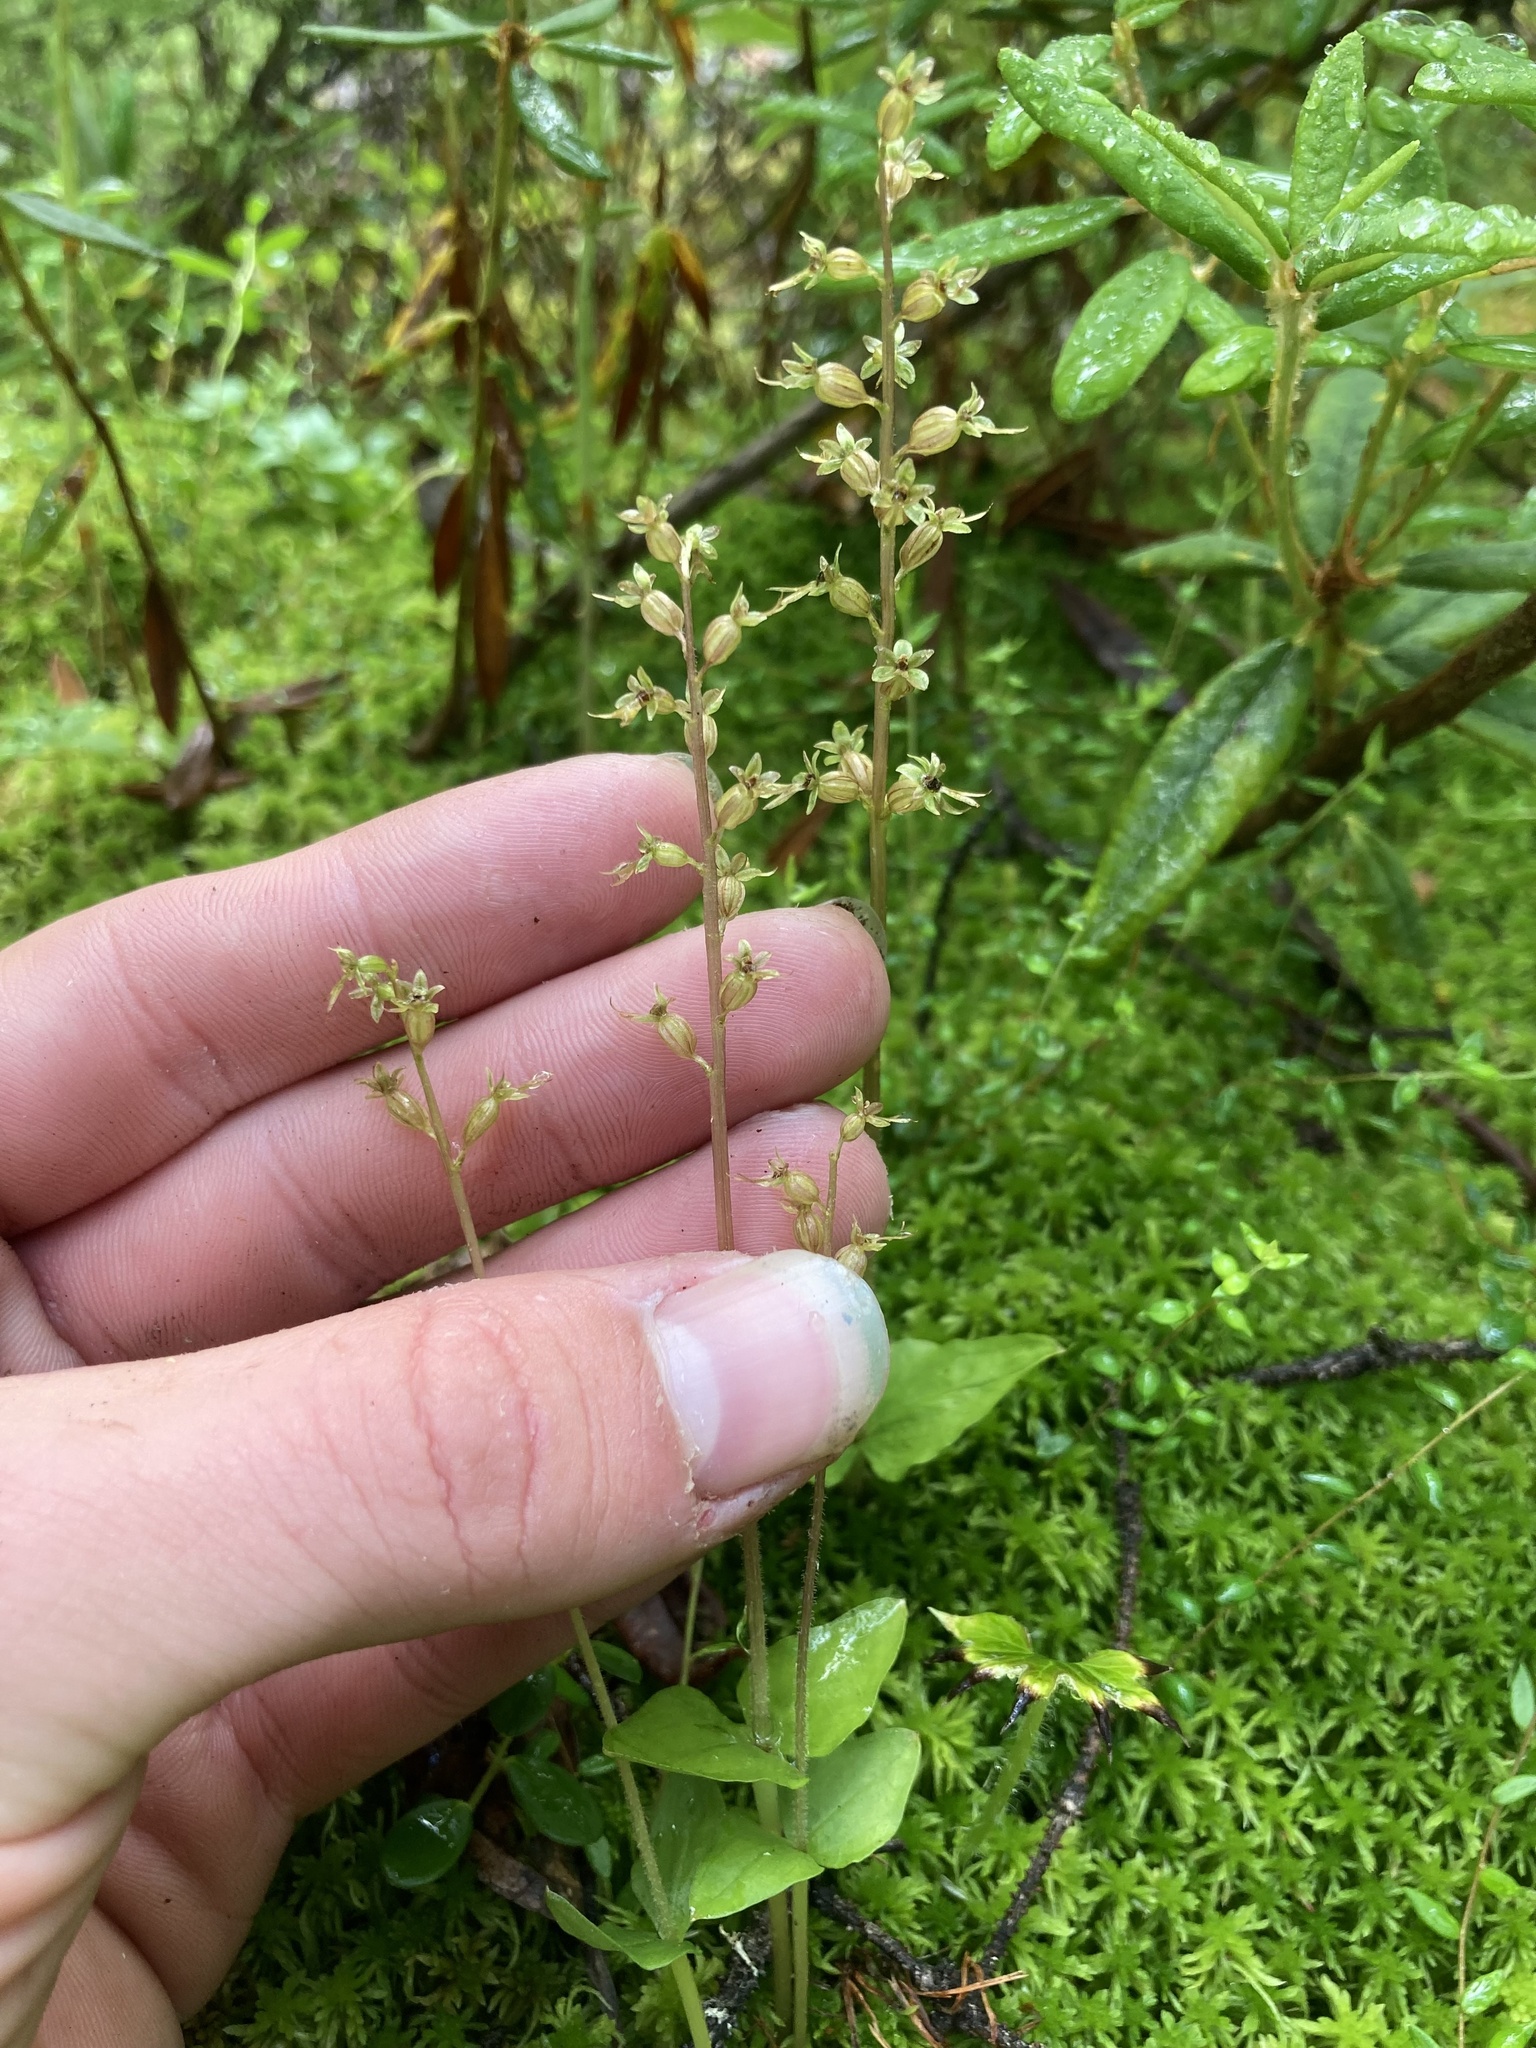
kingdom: Plantae
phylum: Tracheophyta
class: Liliopsida
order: Asparagales
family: Orchidaceae
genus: Neottia
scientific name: Neottia cordata
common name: Lesser twayblade
